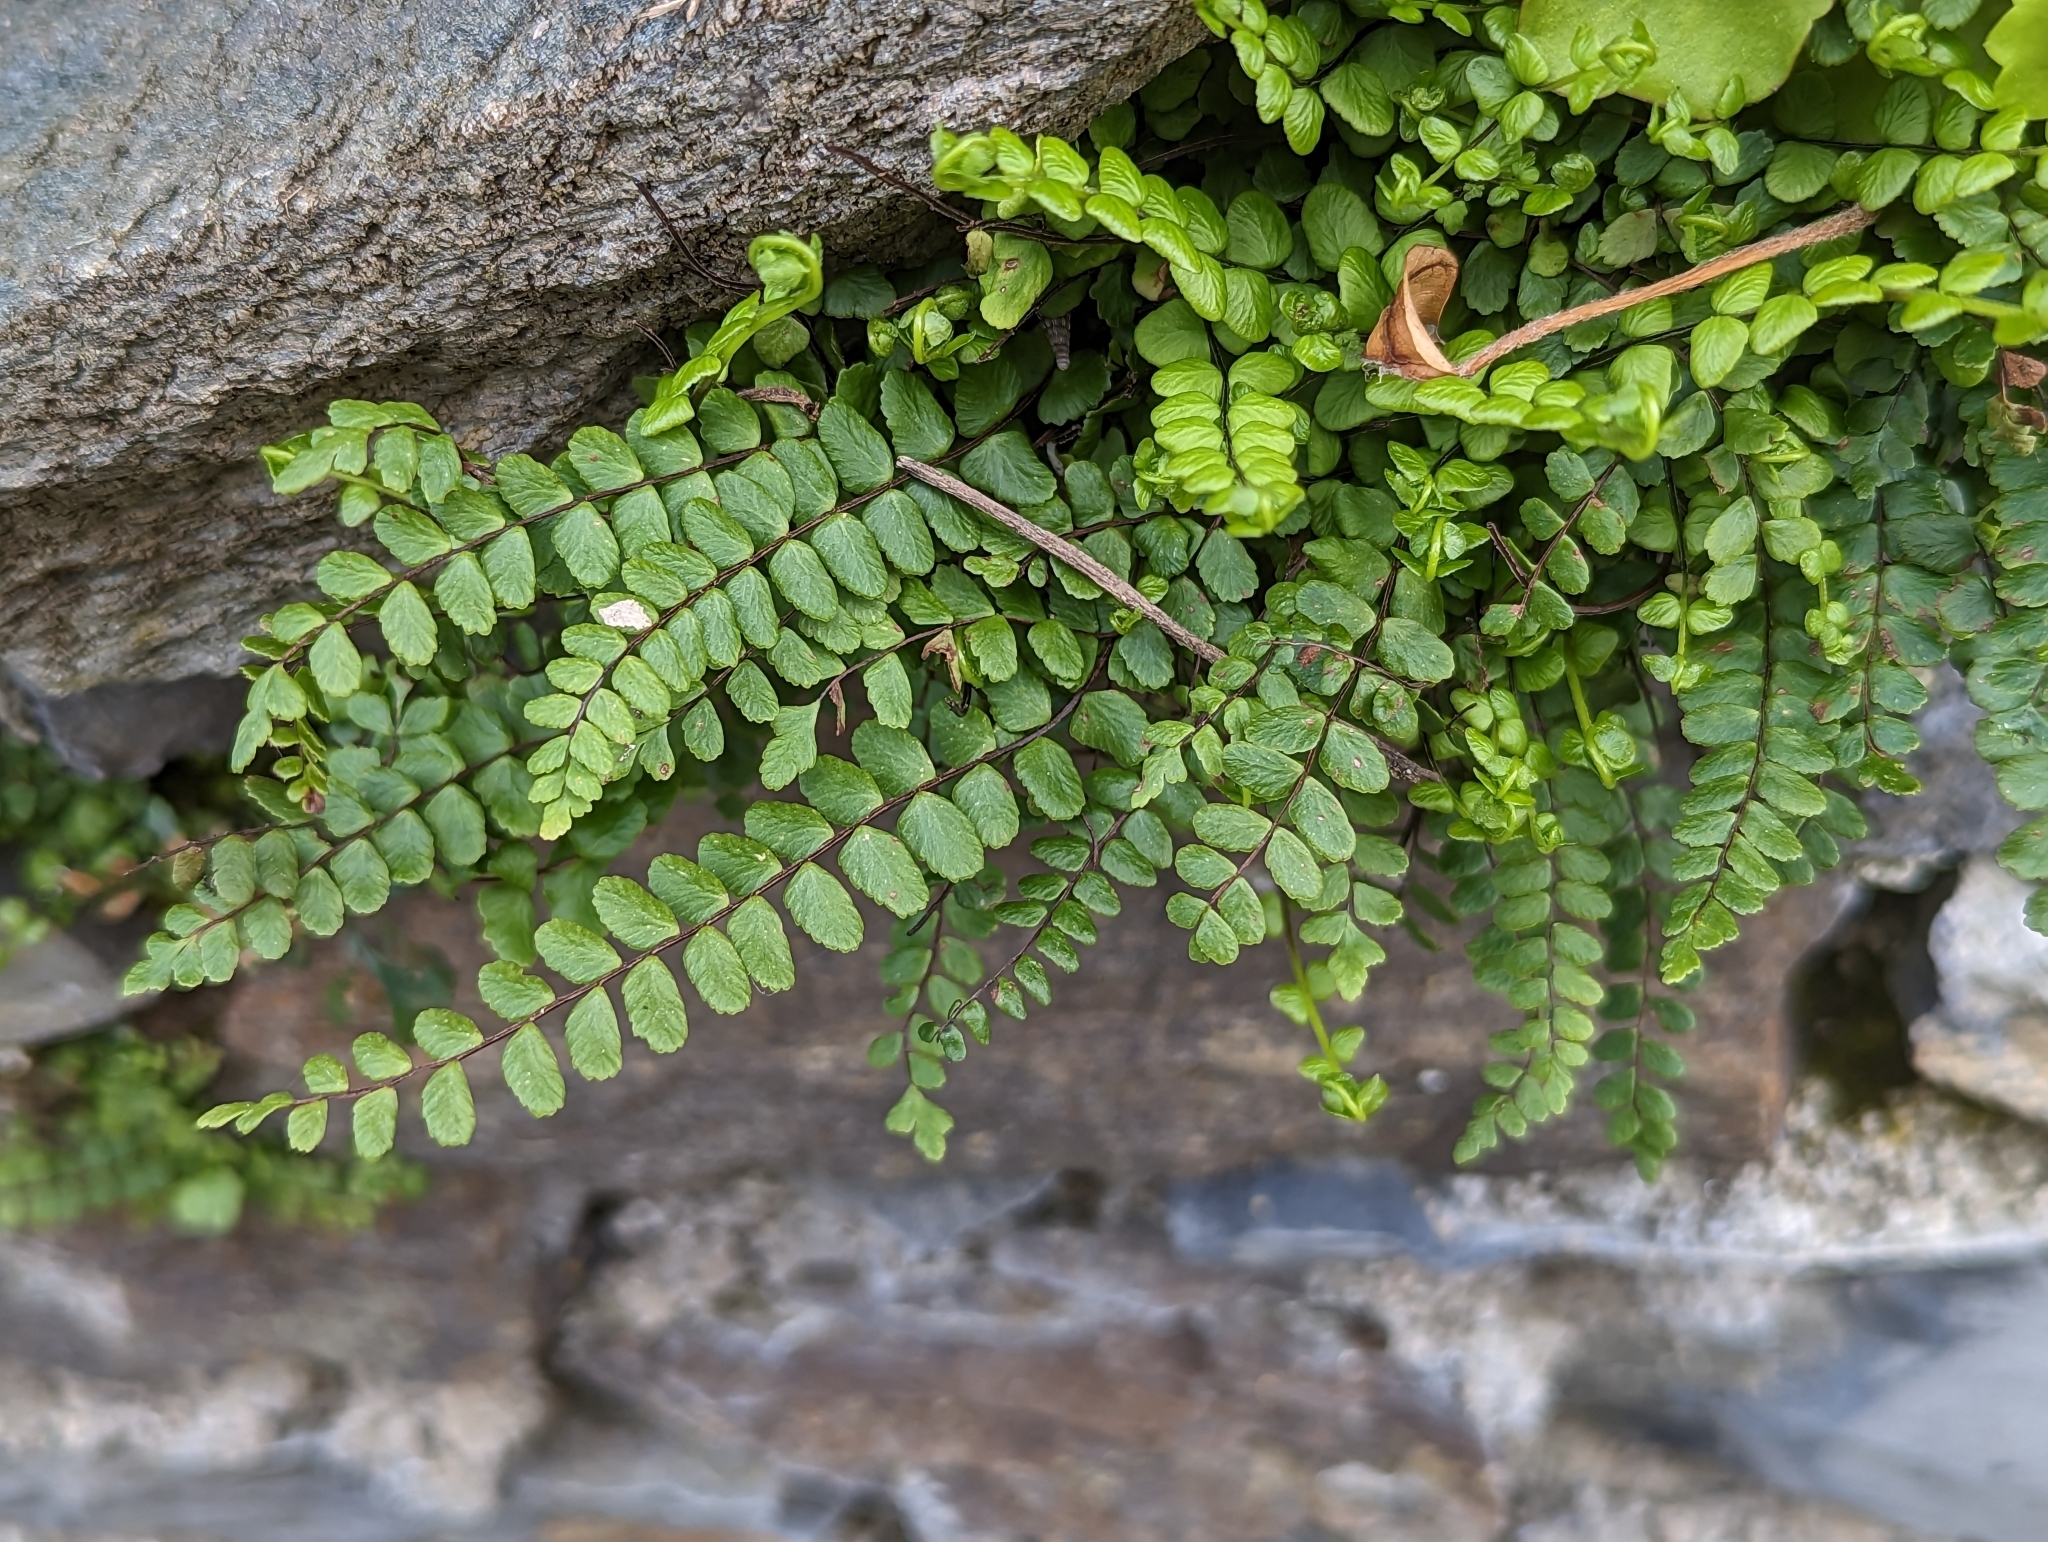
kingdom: Plantae
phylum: Tracheophyta
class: Polypodiopsida
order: Polypodiales
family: Aspleniaceae
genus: Asplenium
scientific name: Asplenium trichomanes
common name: Maidenhair spleenwort
